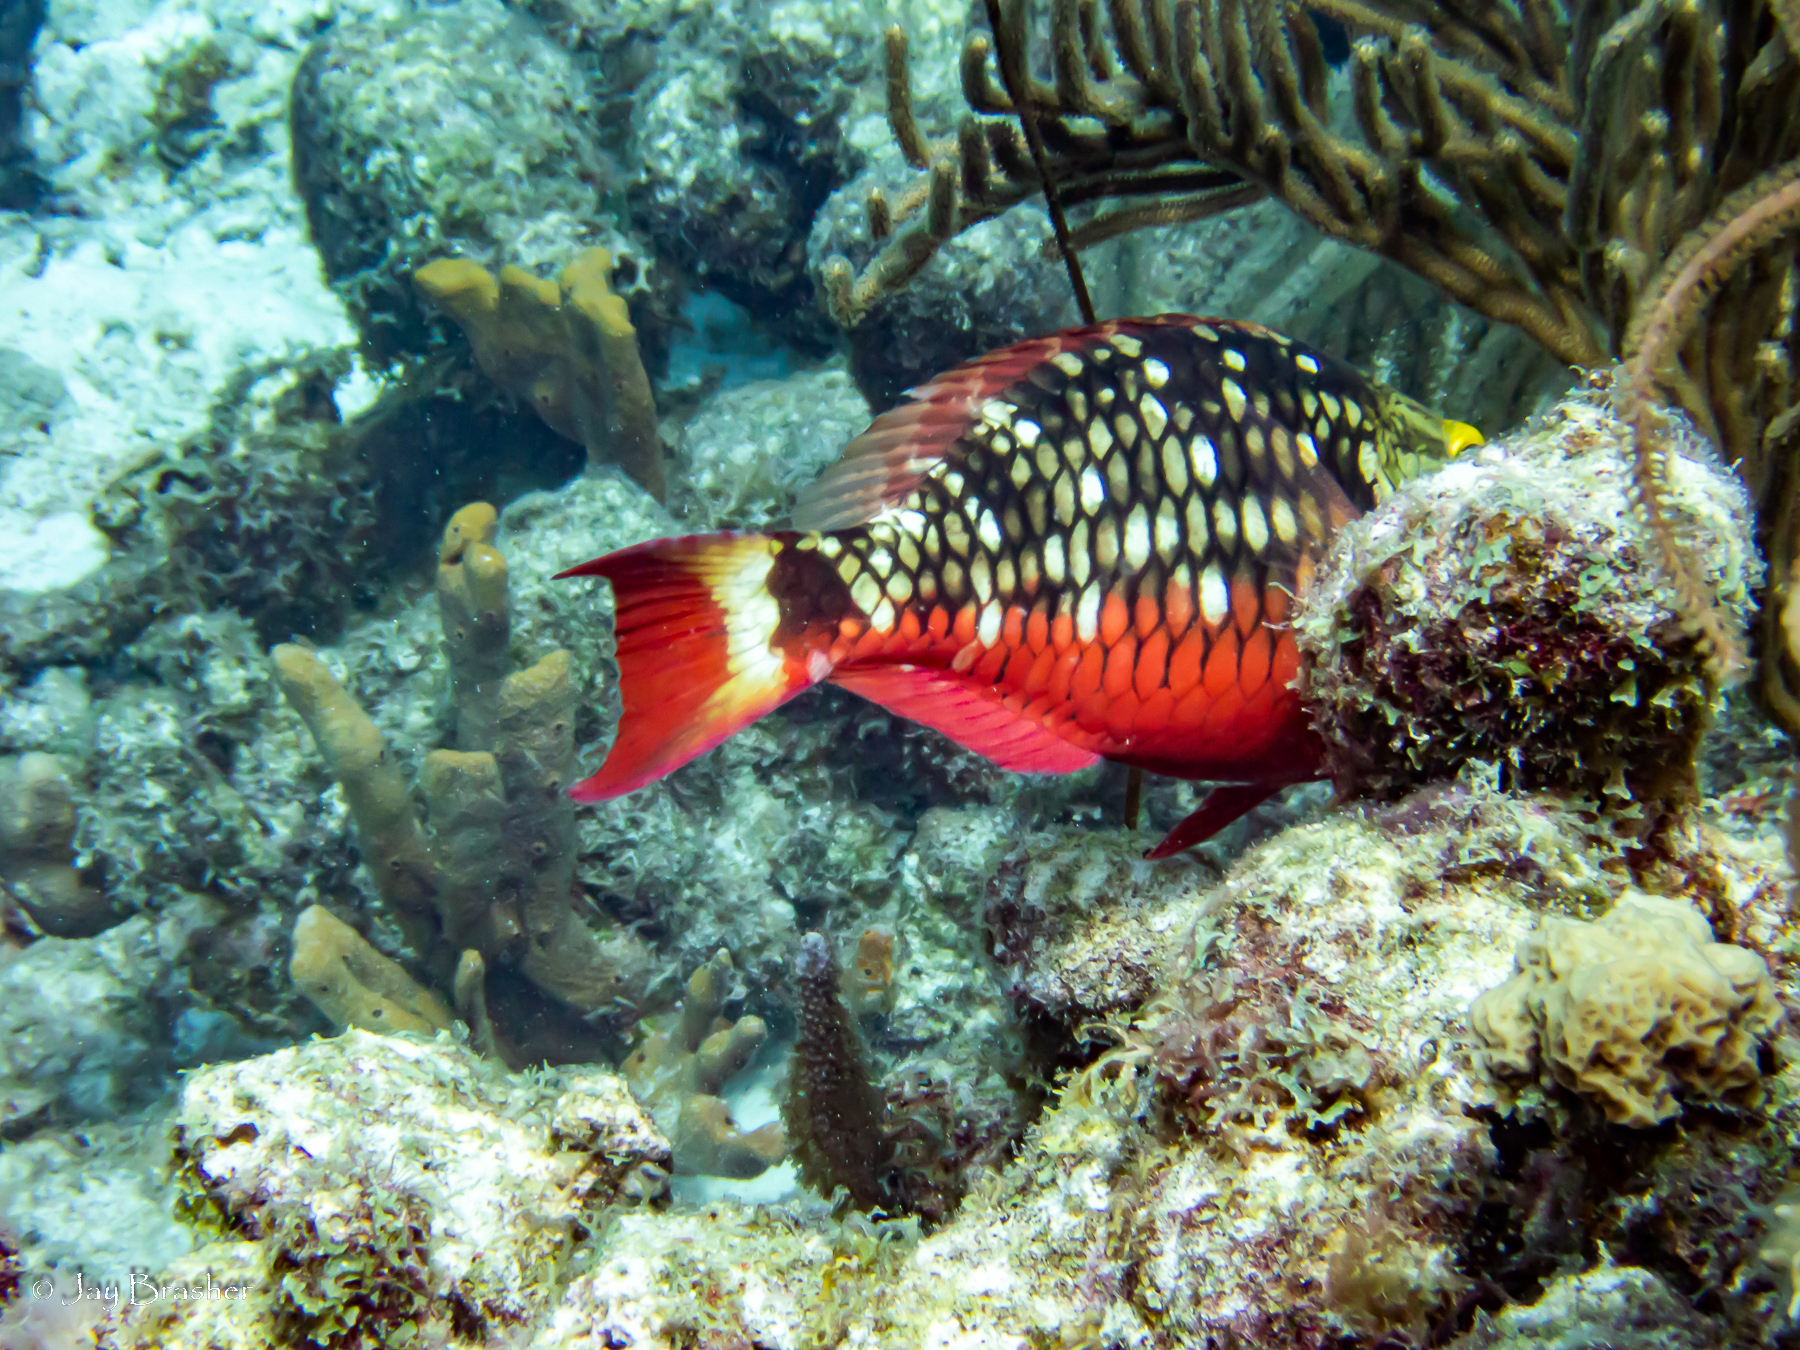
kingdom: Animalia
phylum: Porifera
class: Demospongiae
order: Verongiida
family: Aplysinidae
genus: Aplysina
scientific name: Aplysina fulva
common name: Scattered pore rope sponge
